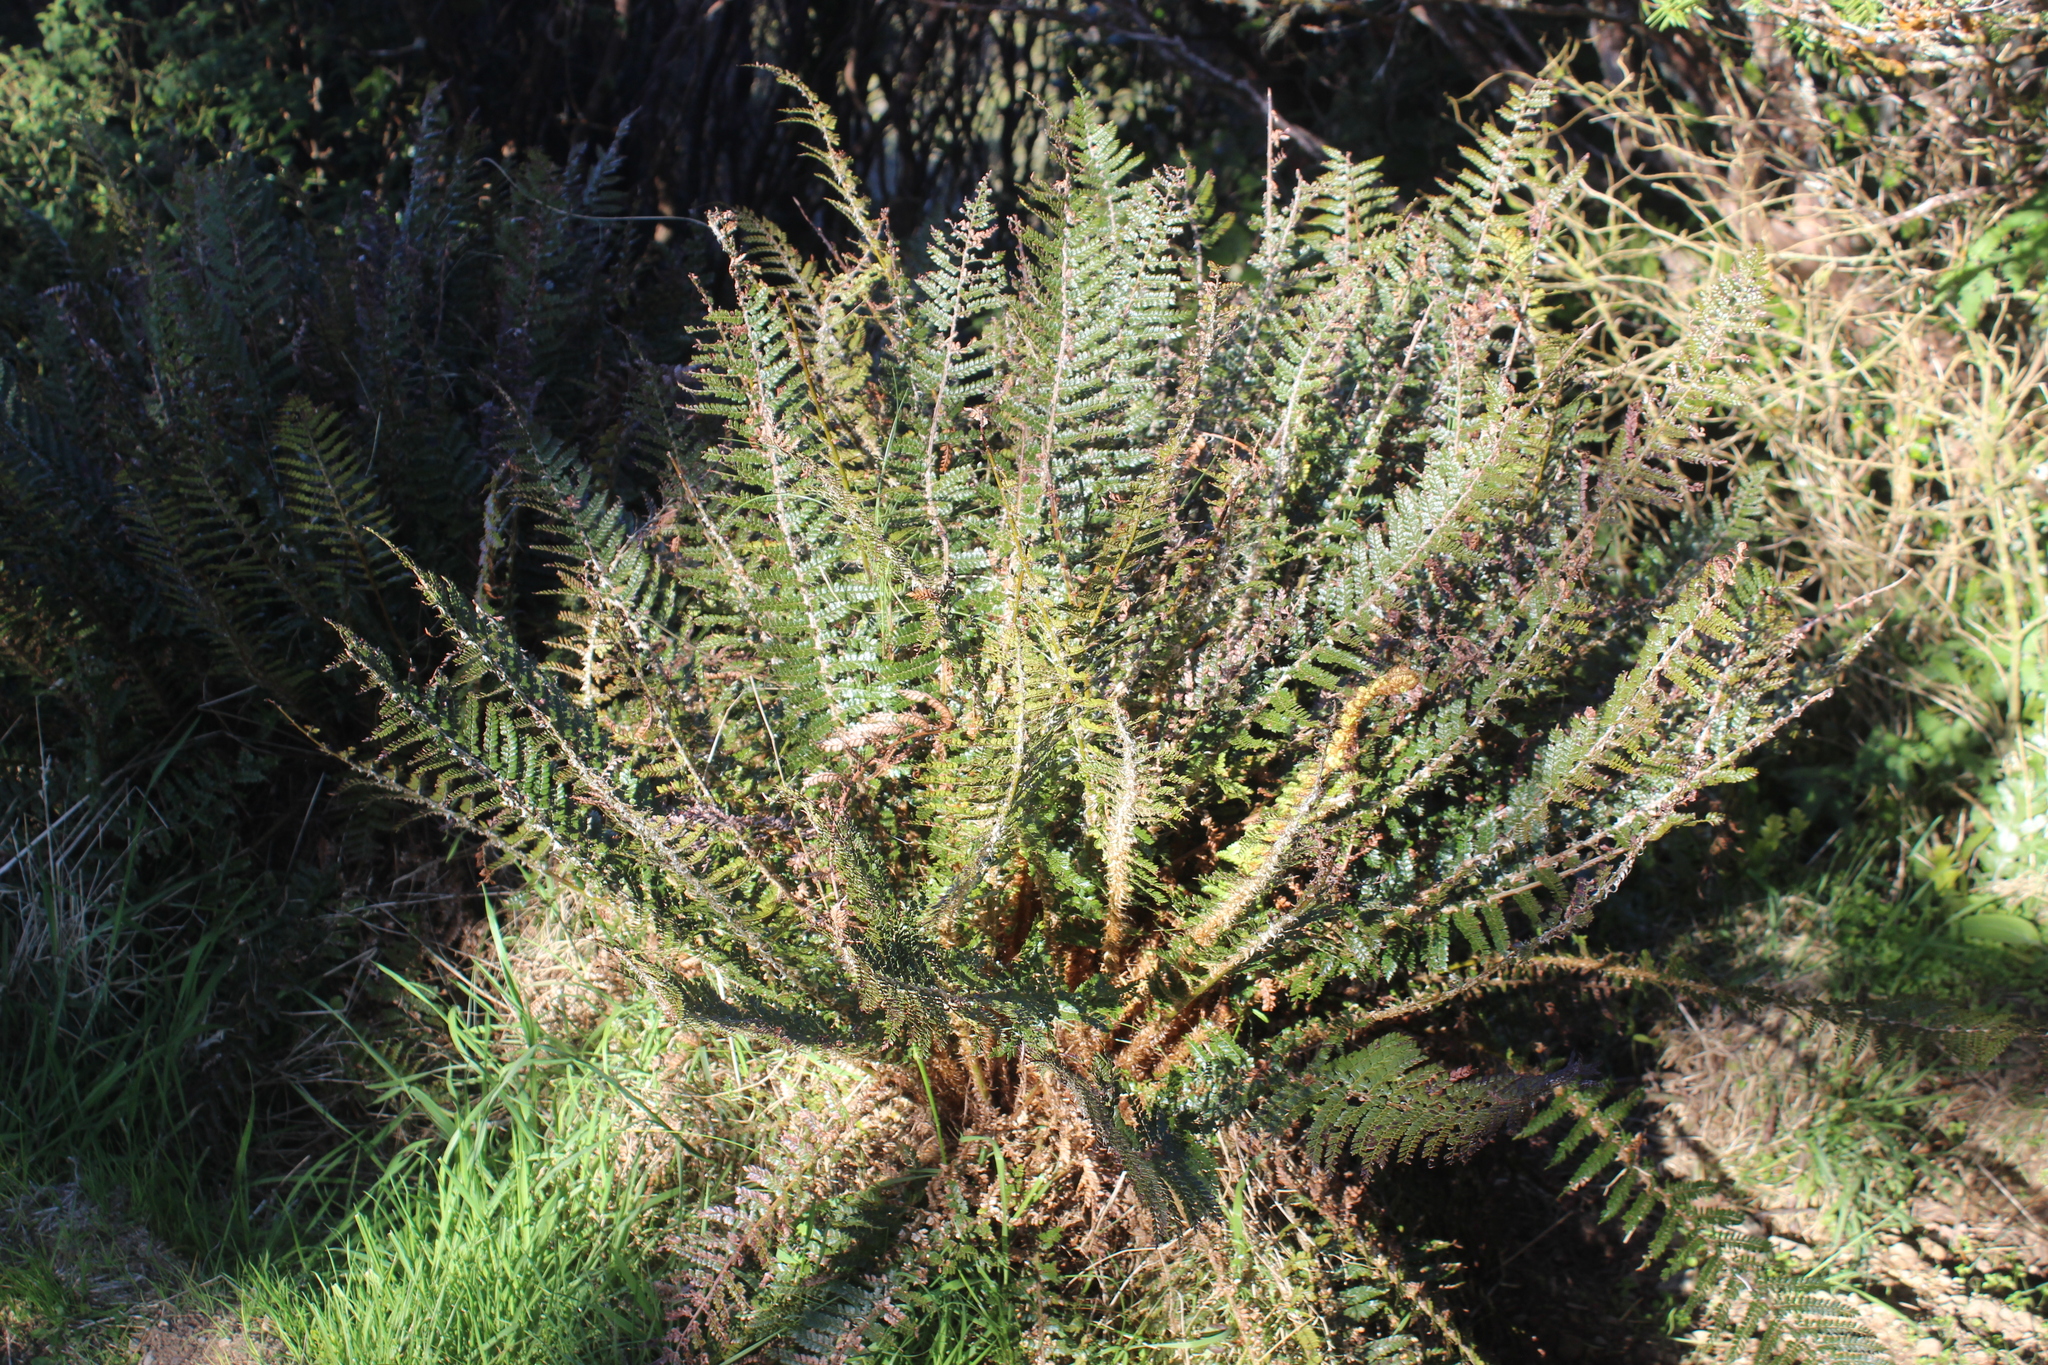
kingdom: Plantae
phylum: Tracheophyta
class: Polypodiopsida
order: Polypodiales
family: Dryopteridaceae
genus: Polystichum
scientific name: Polystichum vestitum
